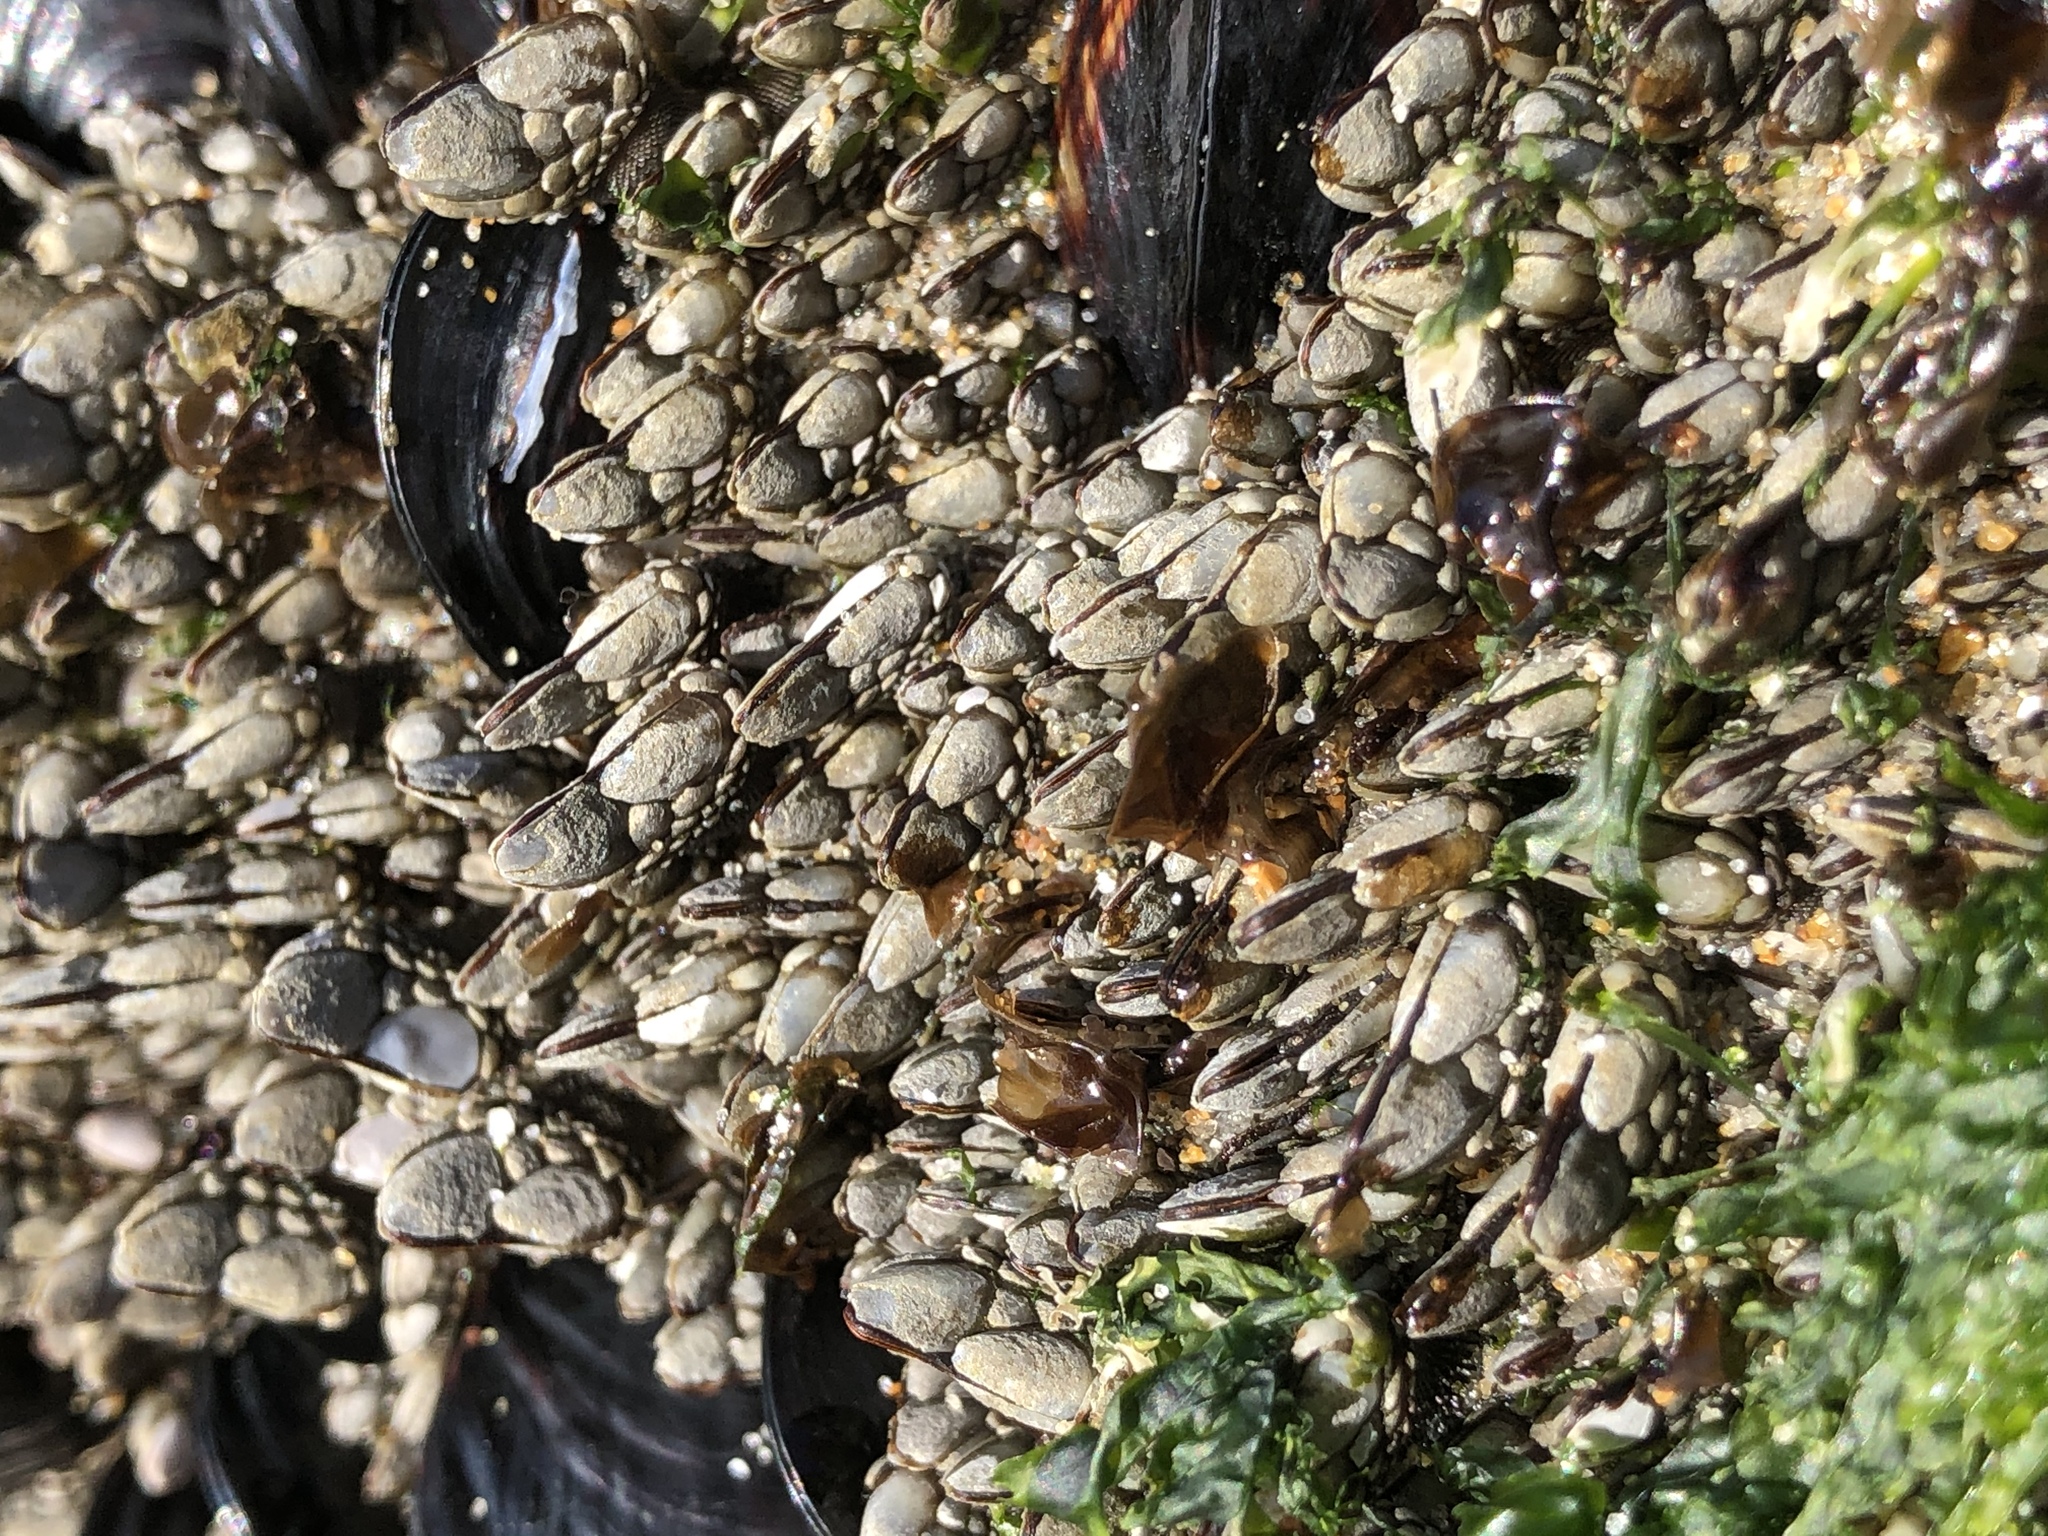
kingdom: Animalia
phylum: Arthropoda
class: Maxillopoda
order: Pedunculata
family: Pollicipedidae
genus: Pollicipes
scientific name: Pollicipes polymerus
